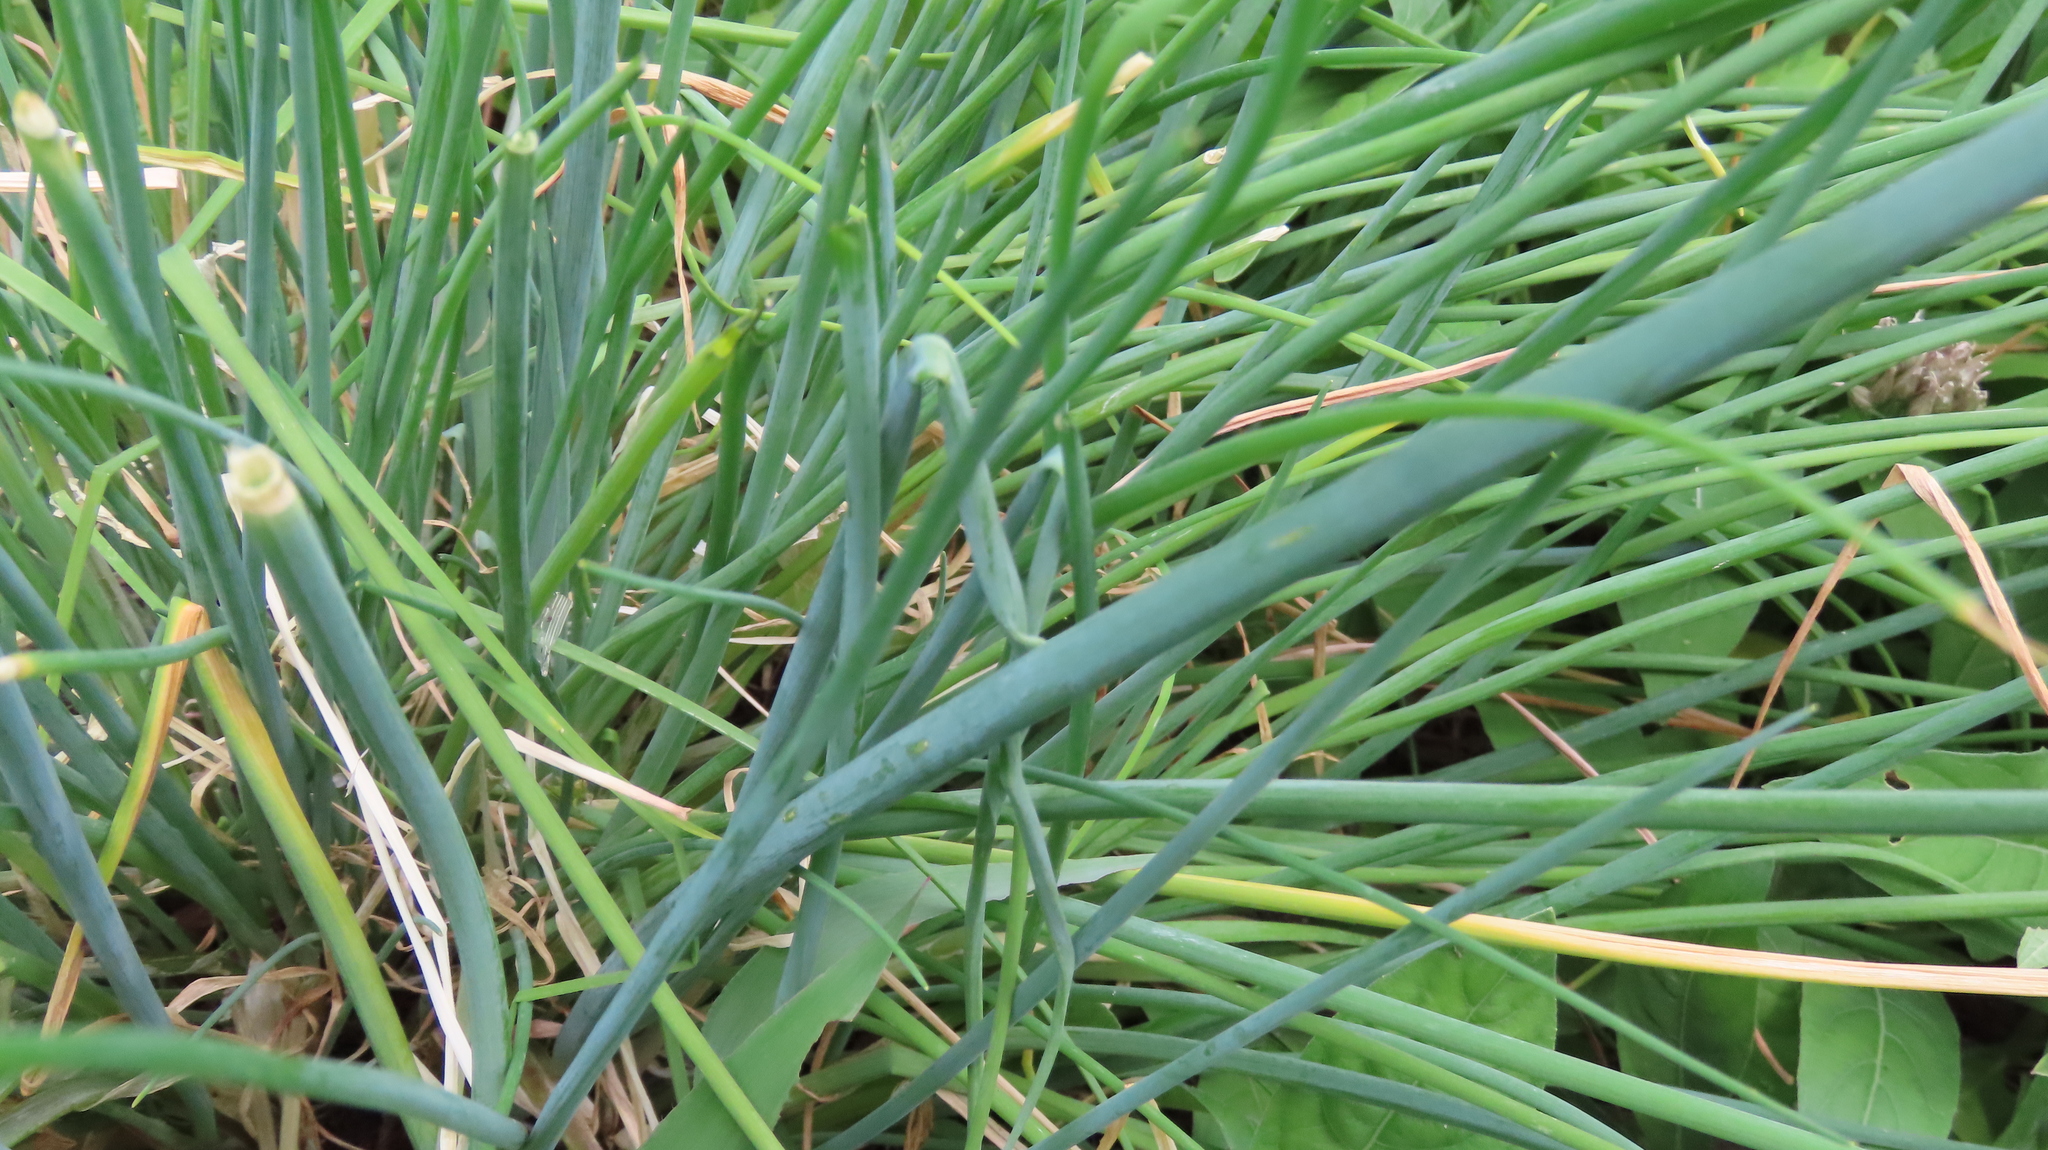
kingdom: Plantae
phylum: Tracheophyta
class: Liliopsida
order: Asparagales
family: Amaryllidaceae
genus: Allium
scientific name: Allium schoenoprasum
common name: Chives
